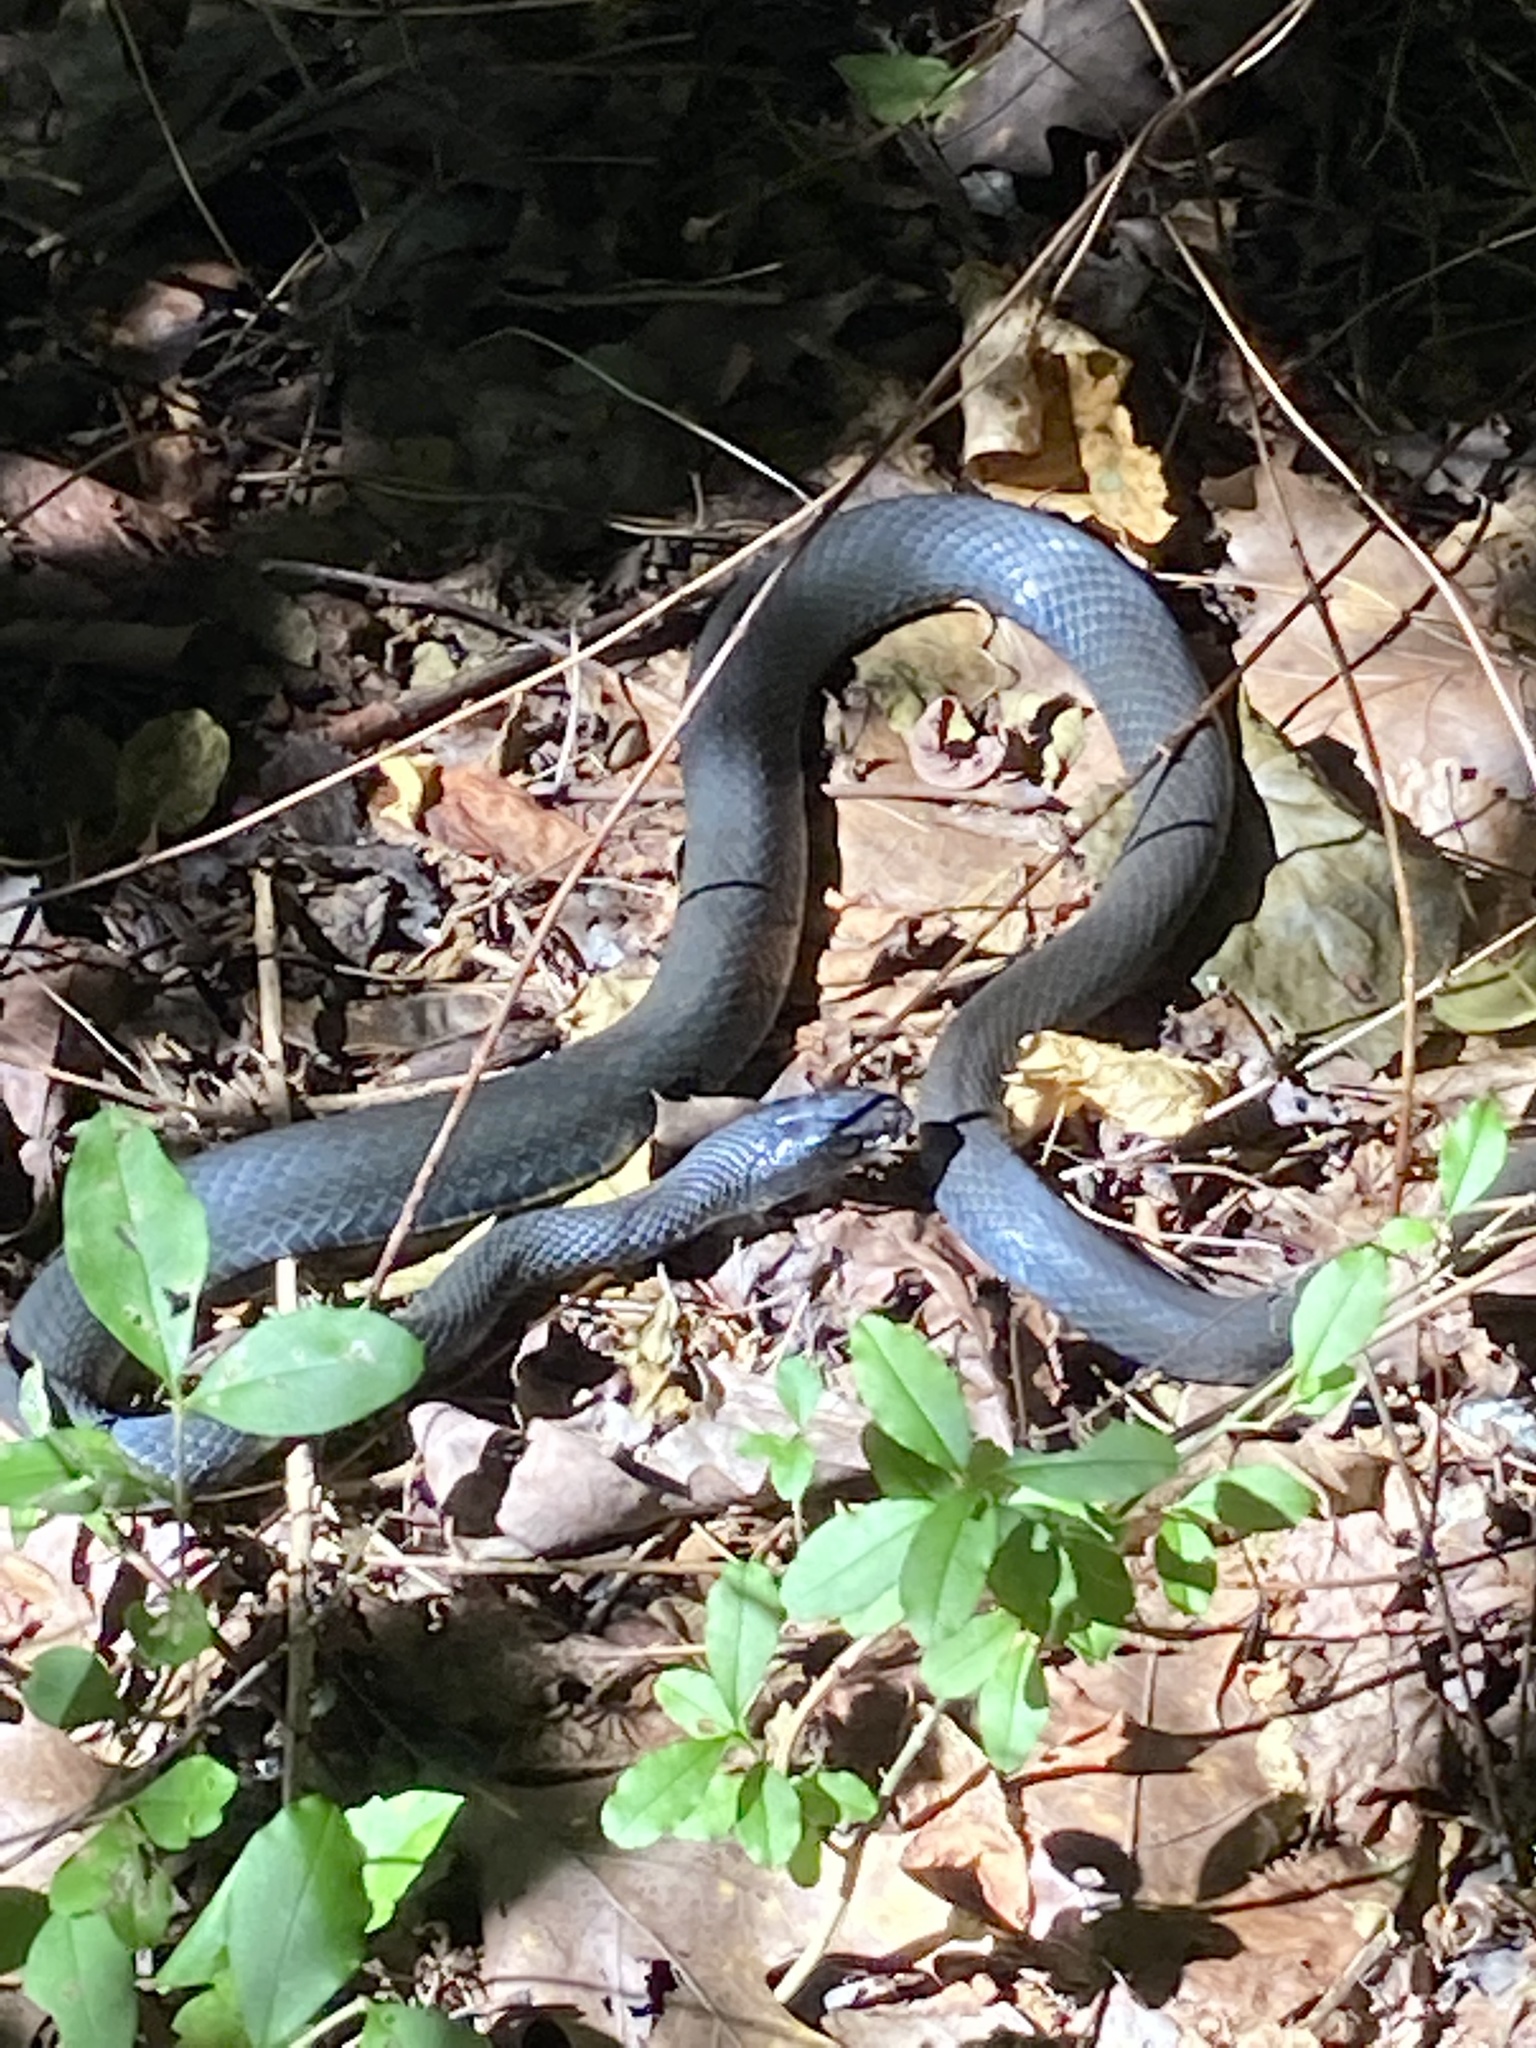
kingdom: Animalia
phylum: Chordata
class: Squamata
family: Colubridae
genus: Coluber
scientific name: Coluber constrictor
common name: Eastern racer
